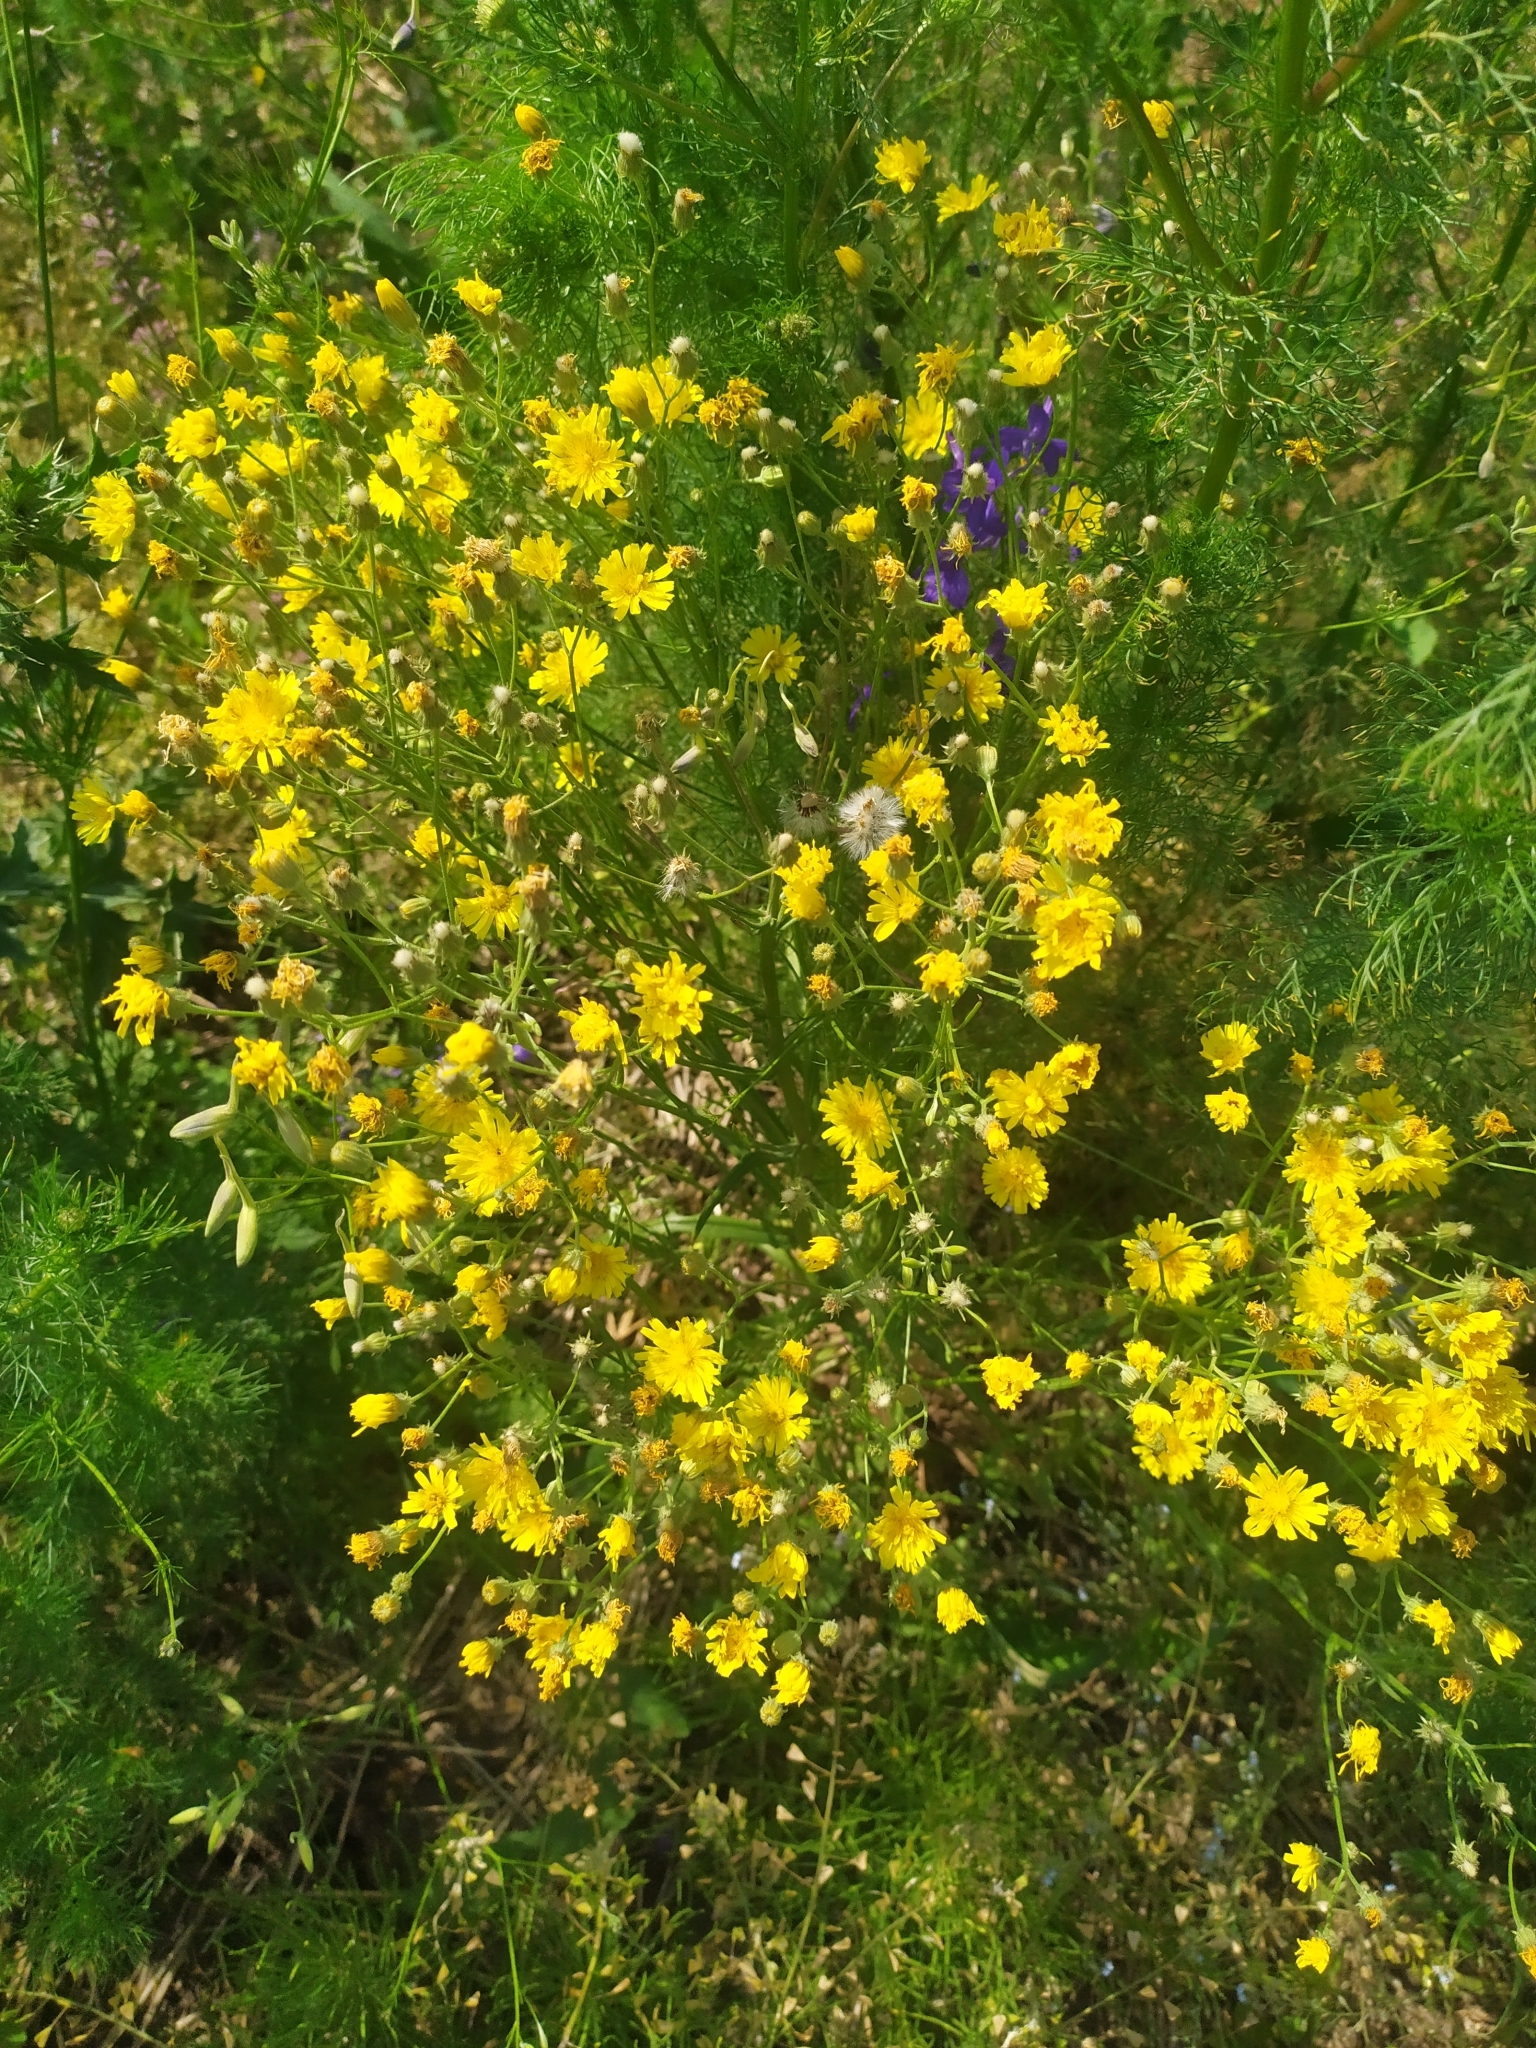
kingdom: Plantae
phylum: Tracheophyta
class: Magnoliopsida
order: Asterales
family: Asteraceae
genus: Crepis
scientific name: Crepis tectorum
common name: Narrow-leaved hawk's-beard
